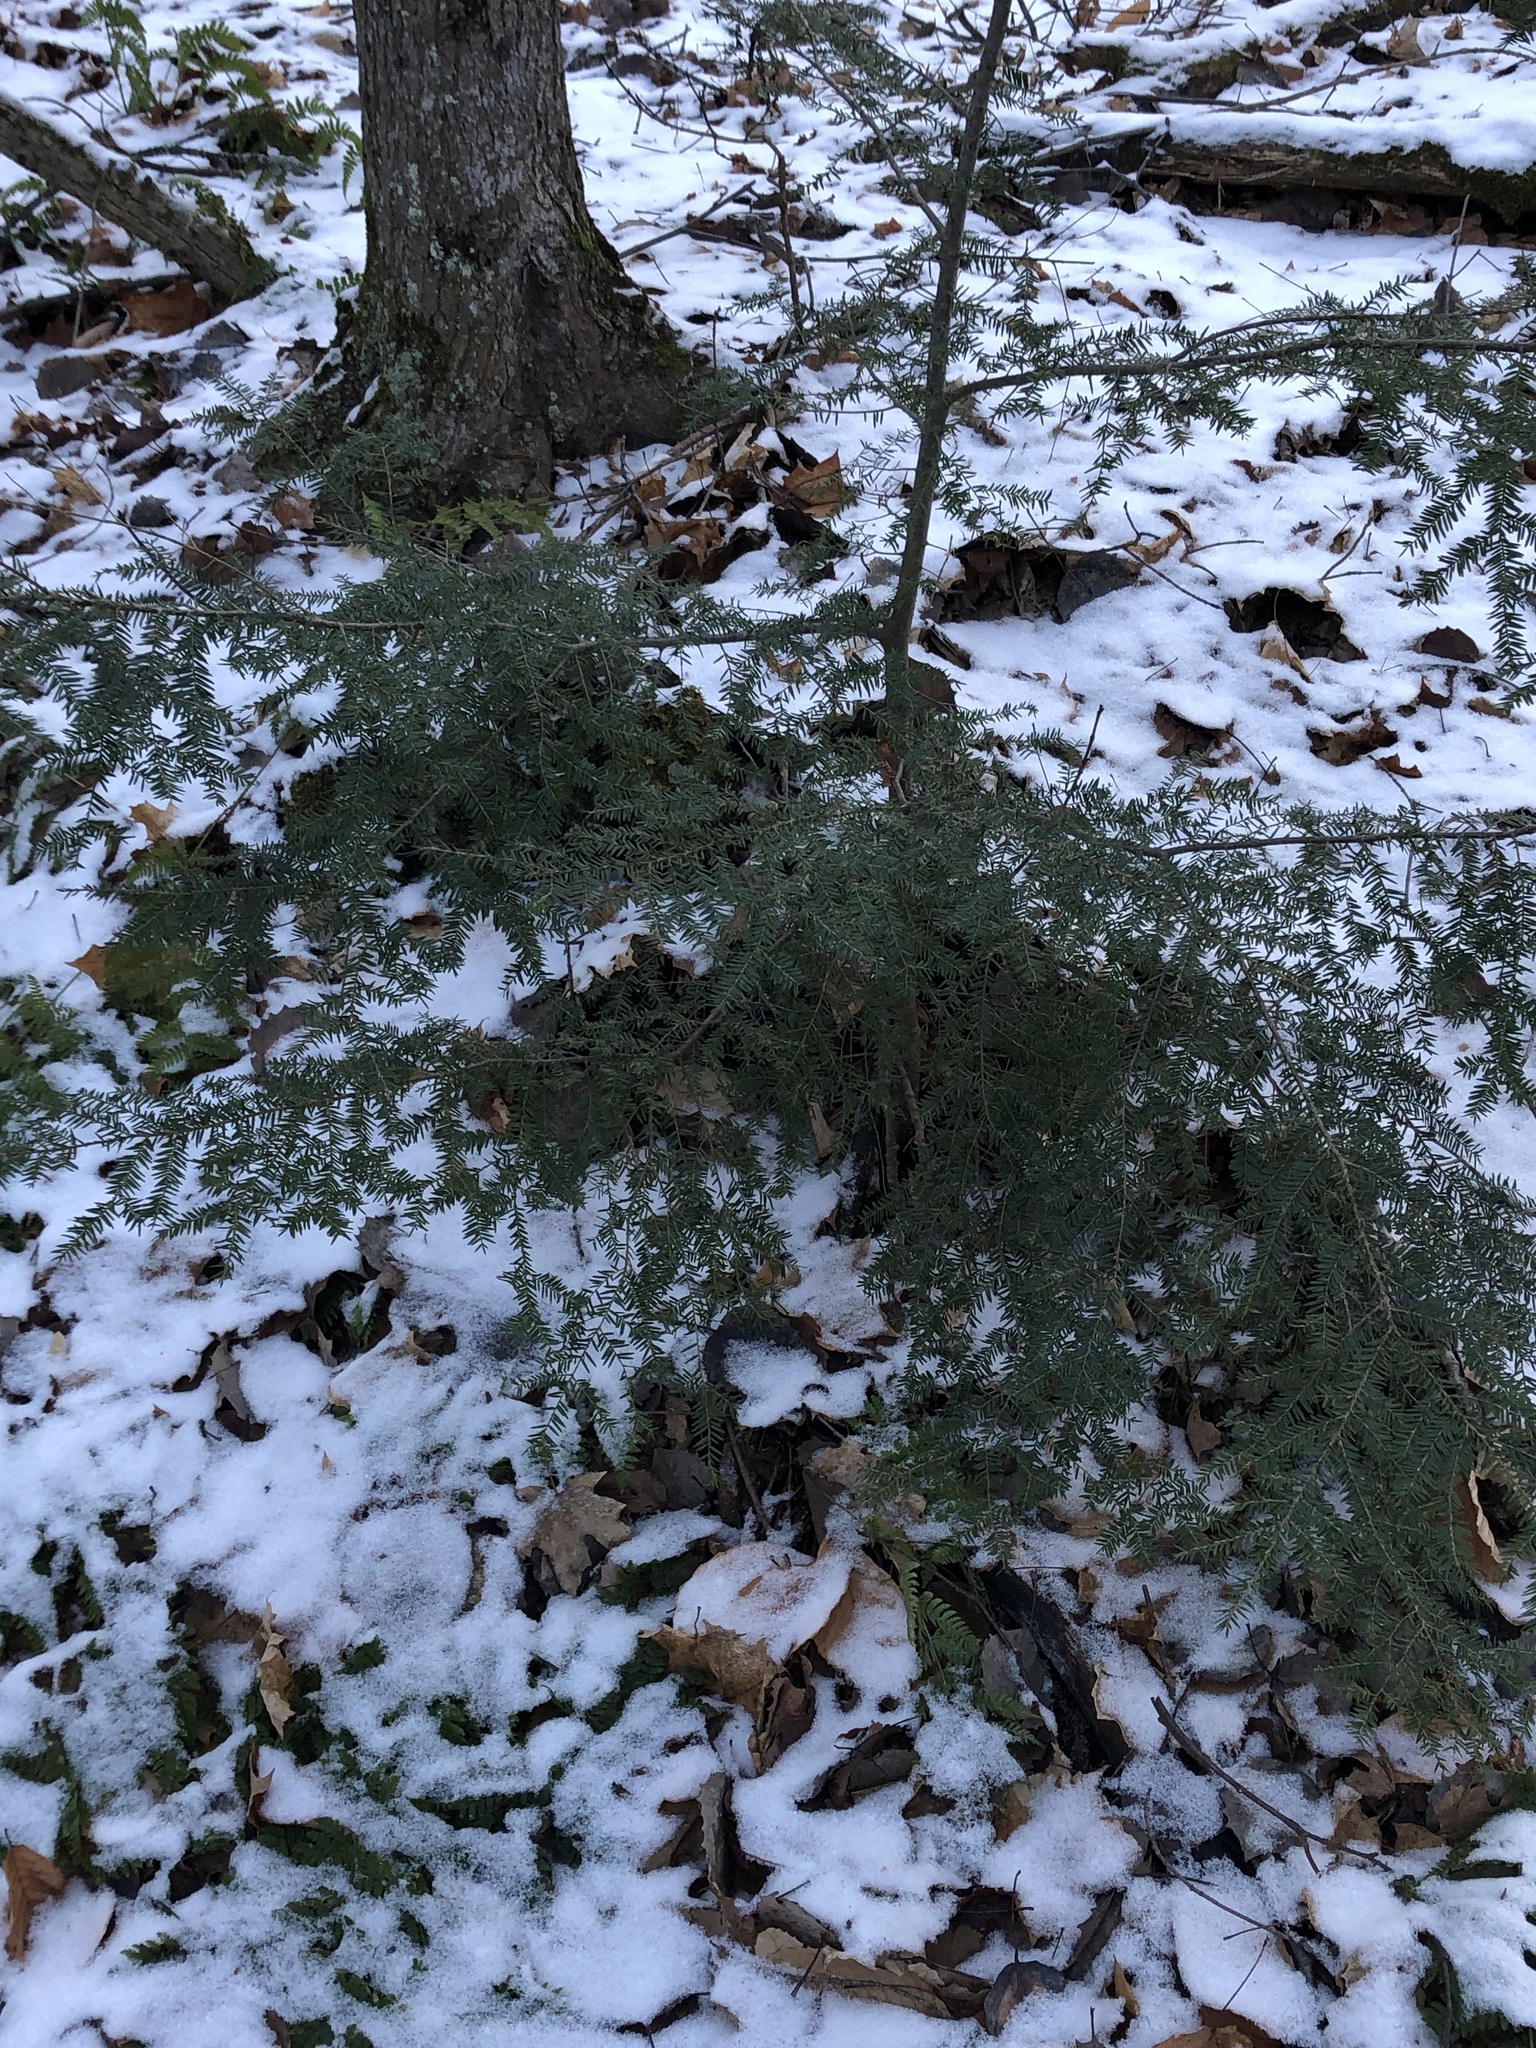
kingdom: Plantae
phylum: Tracheophyta
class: Pinopsida
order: Pinales
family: Pinaceae
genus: Tsuga
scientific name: Tsuga canadensis
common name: Eastern hemlock
